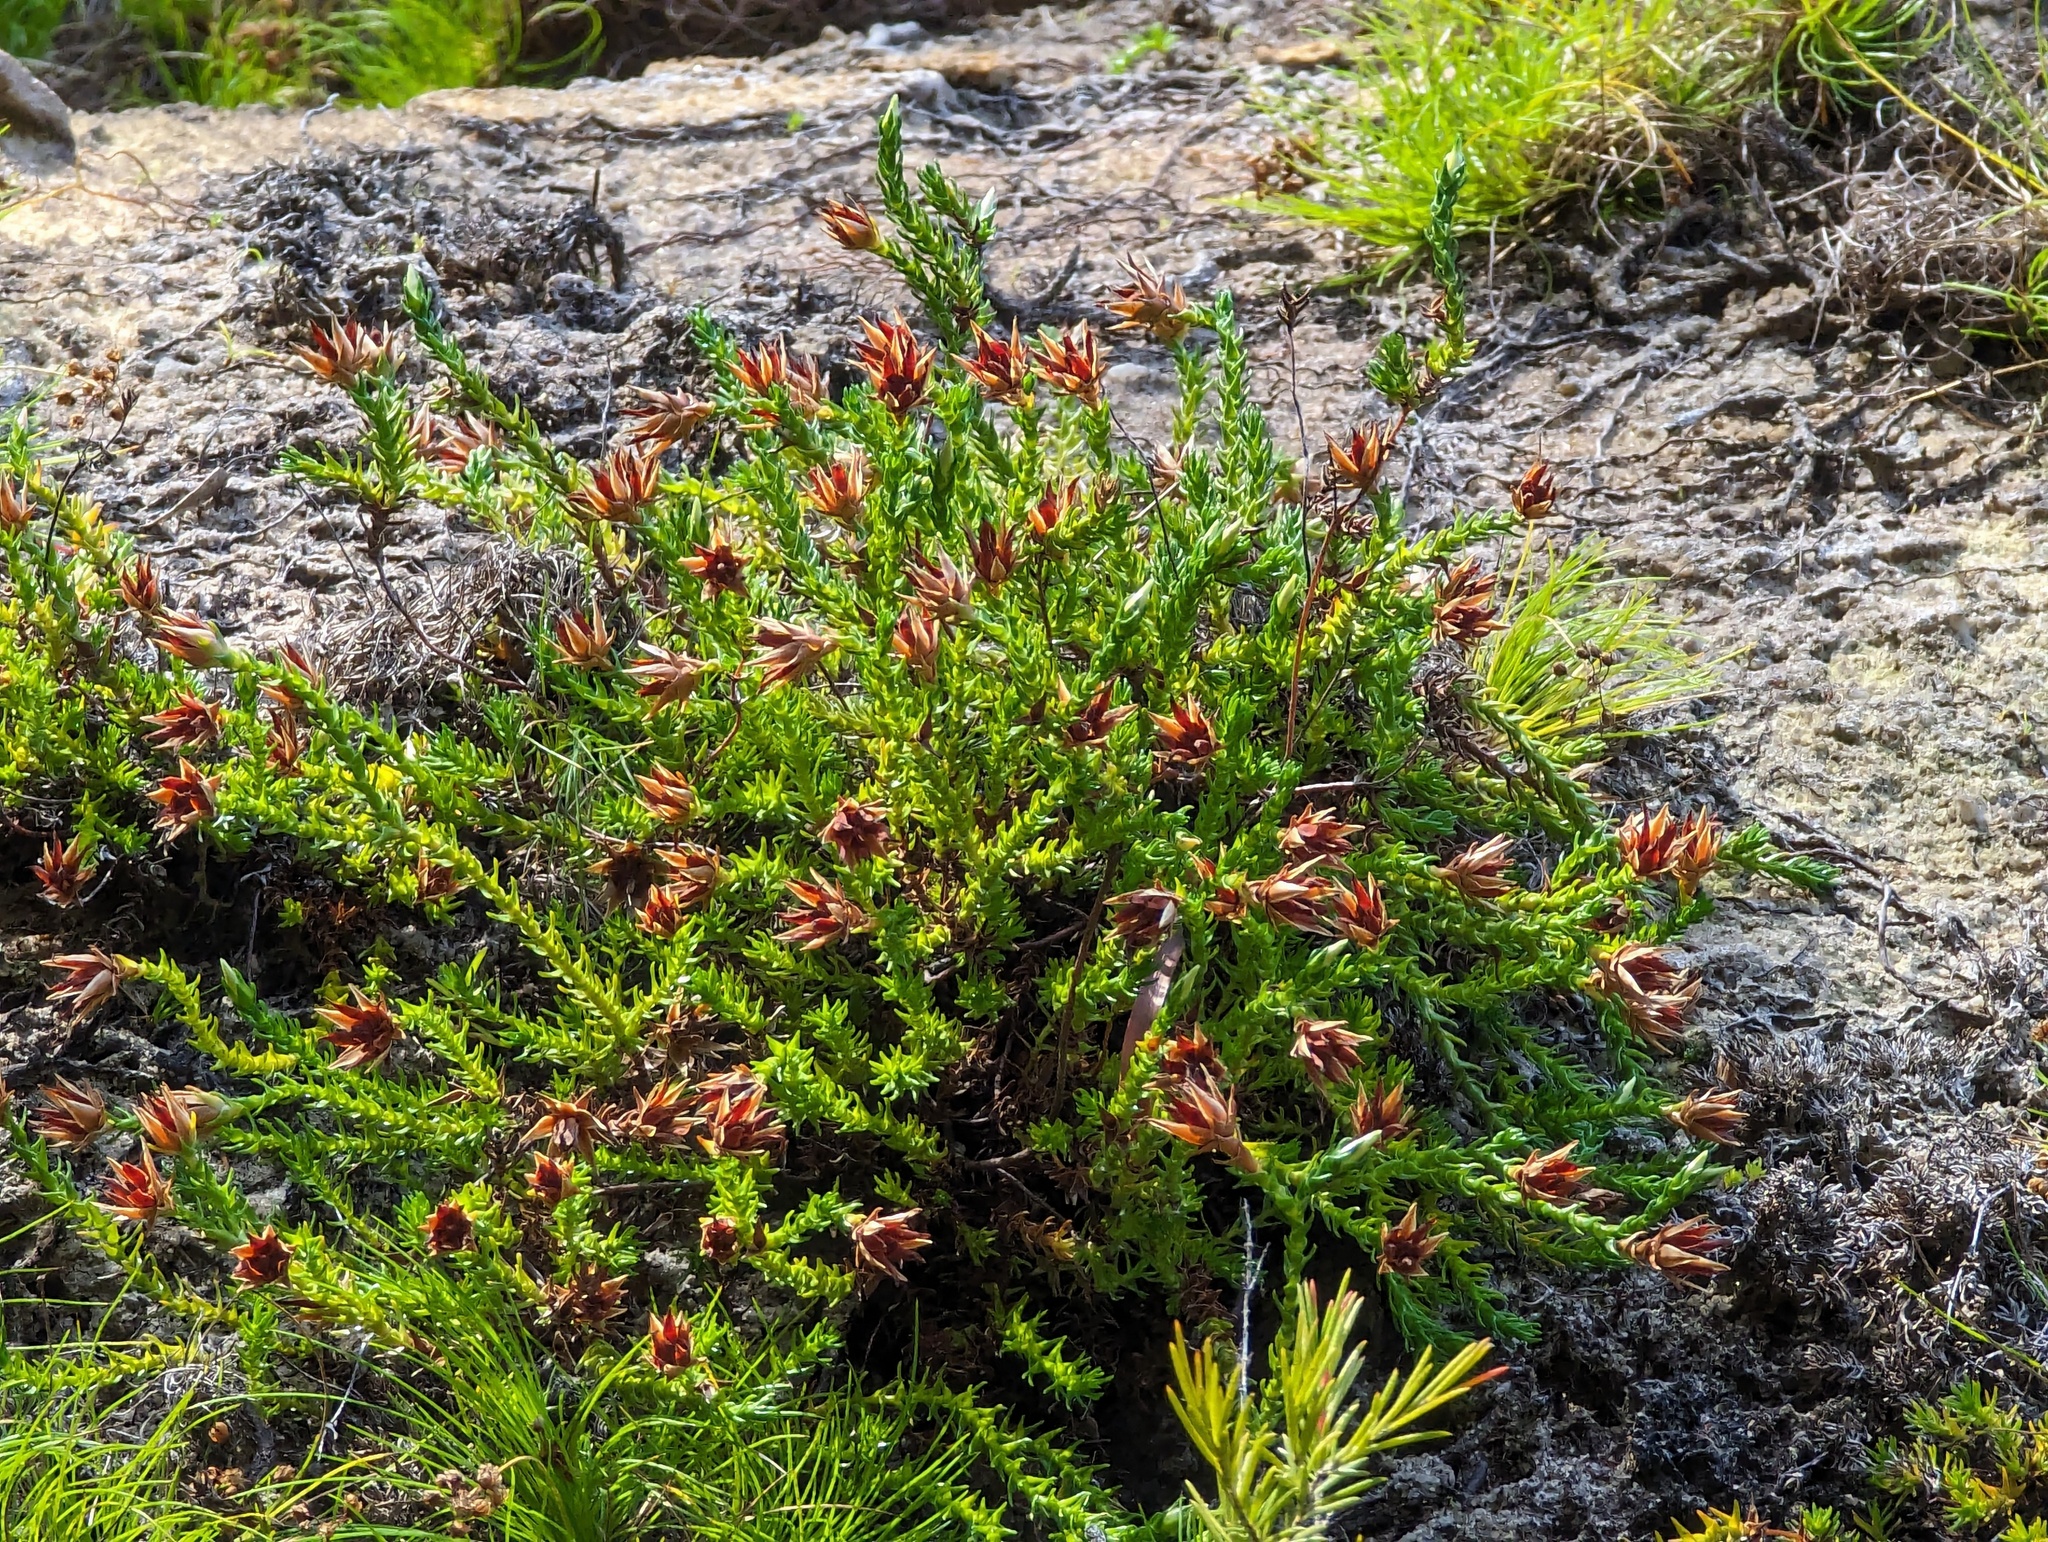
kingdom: Plantae
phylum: Tracheophyta
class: Magnoliopsida
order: Ericales
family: Ericaceae
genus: Sprengelia
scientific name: Sprengelia monticola
